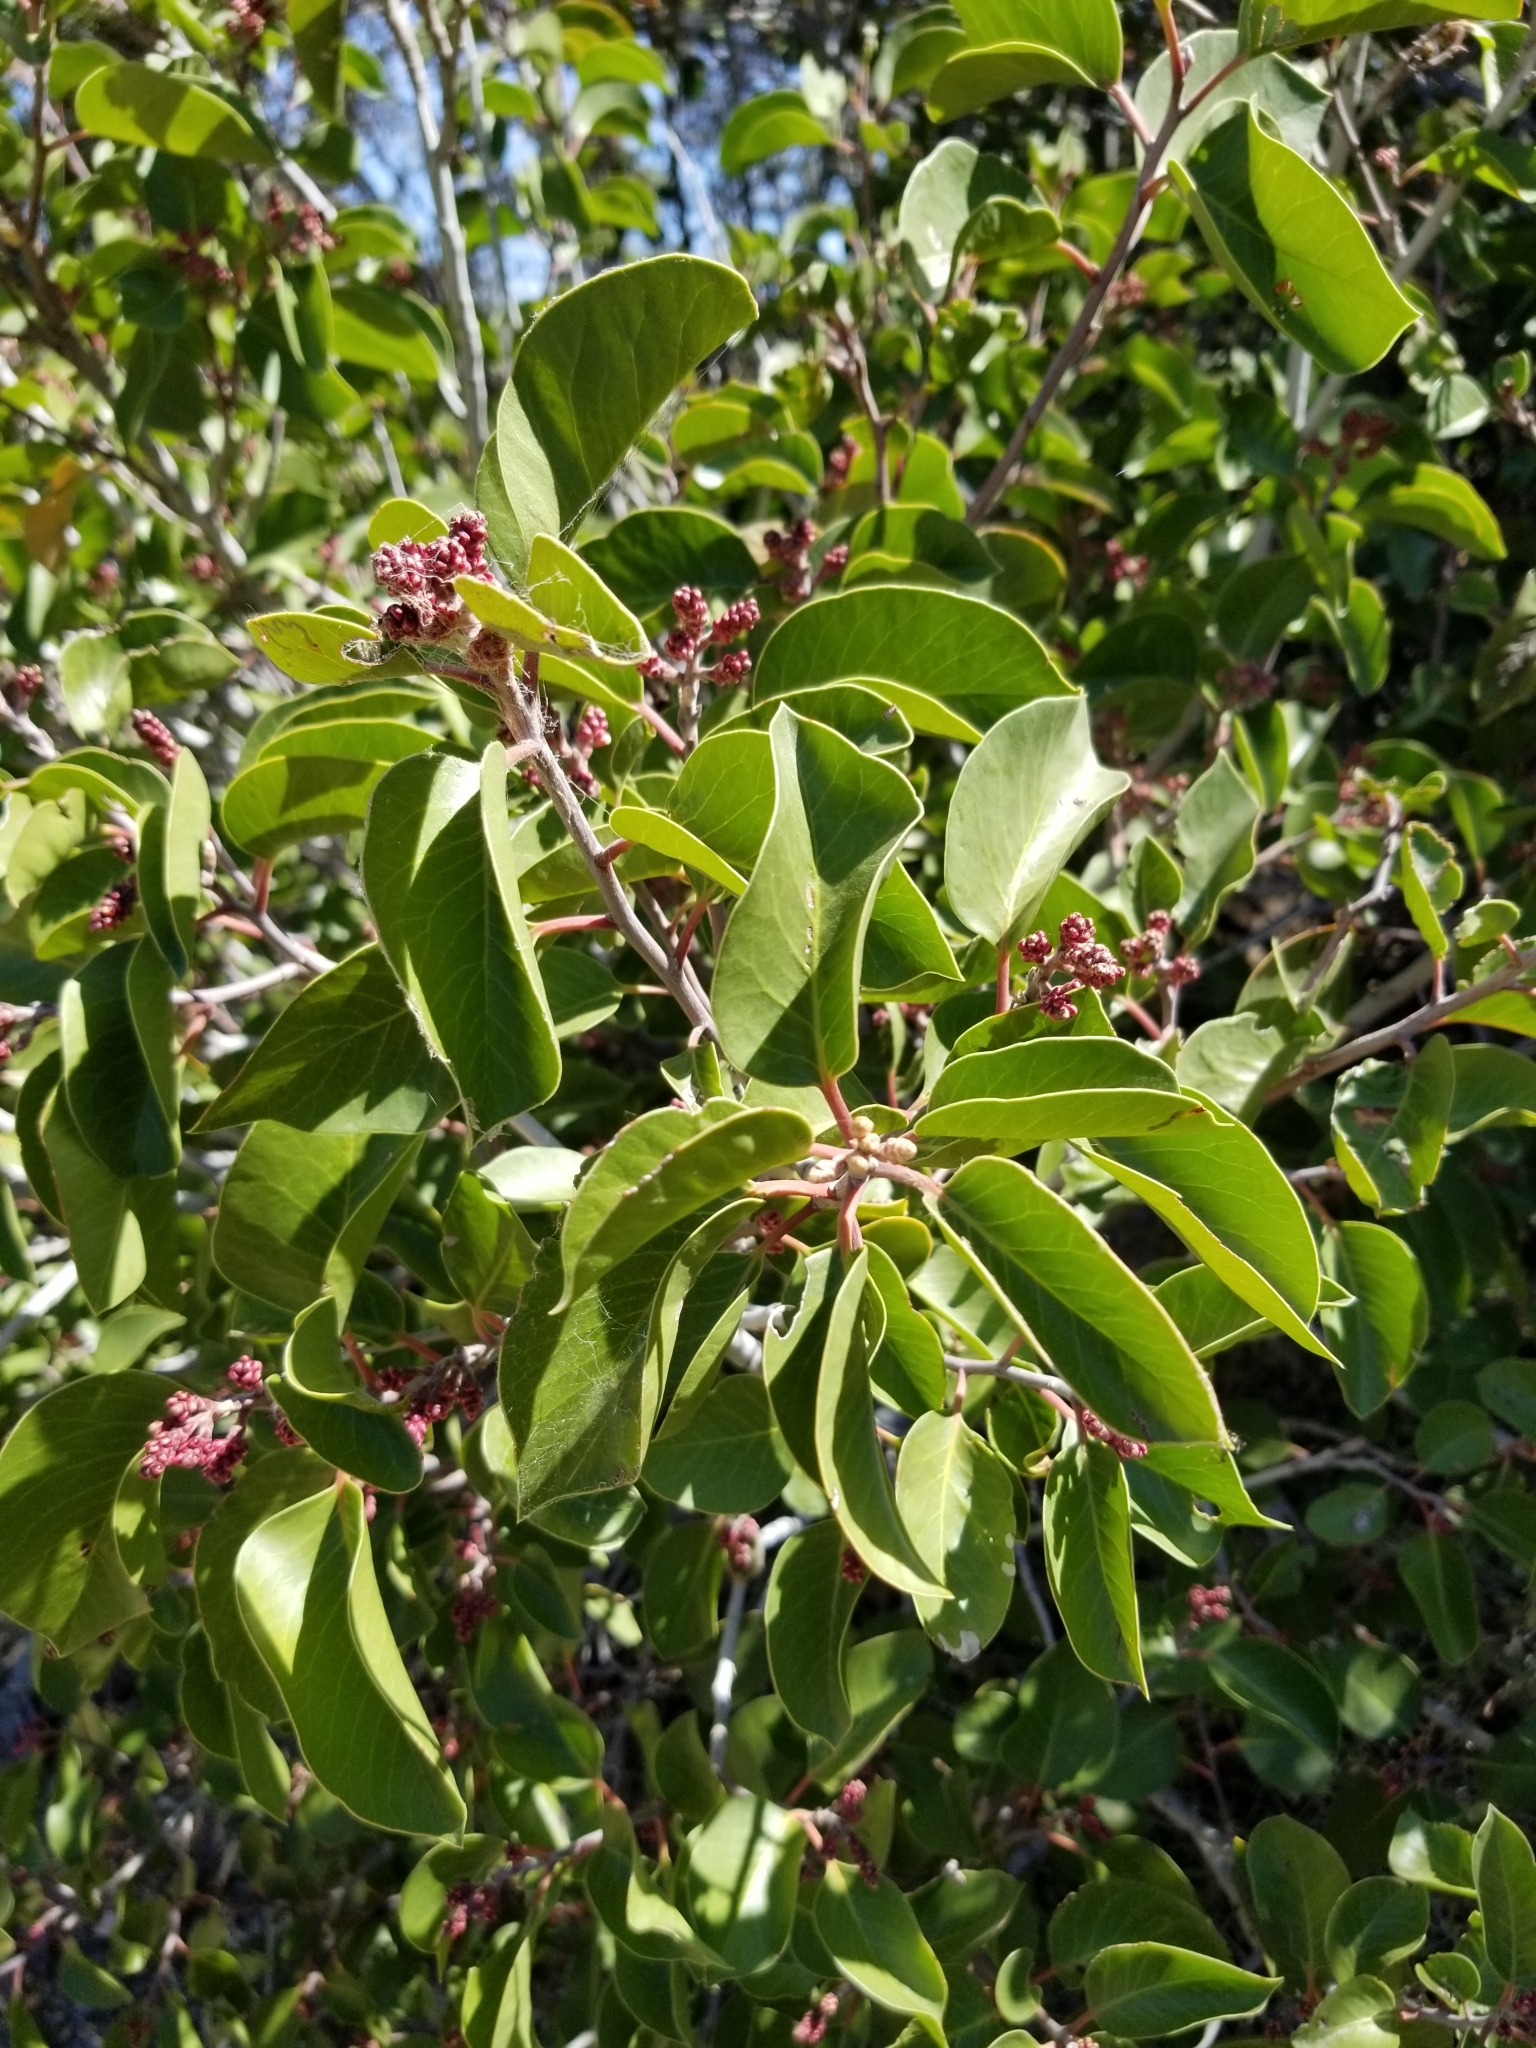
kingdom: Plantae
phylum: Tracheophyta
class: Magnoliopsida
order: Sapindales
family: Anacardiaceae
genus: Rhus
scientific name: Rhus ovata
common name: Sugar sumac
